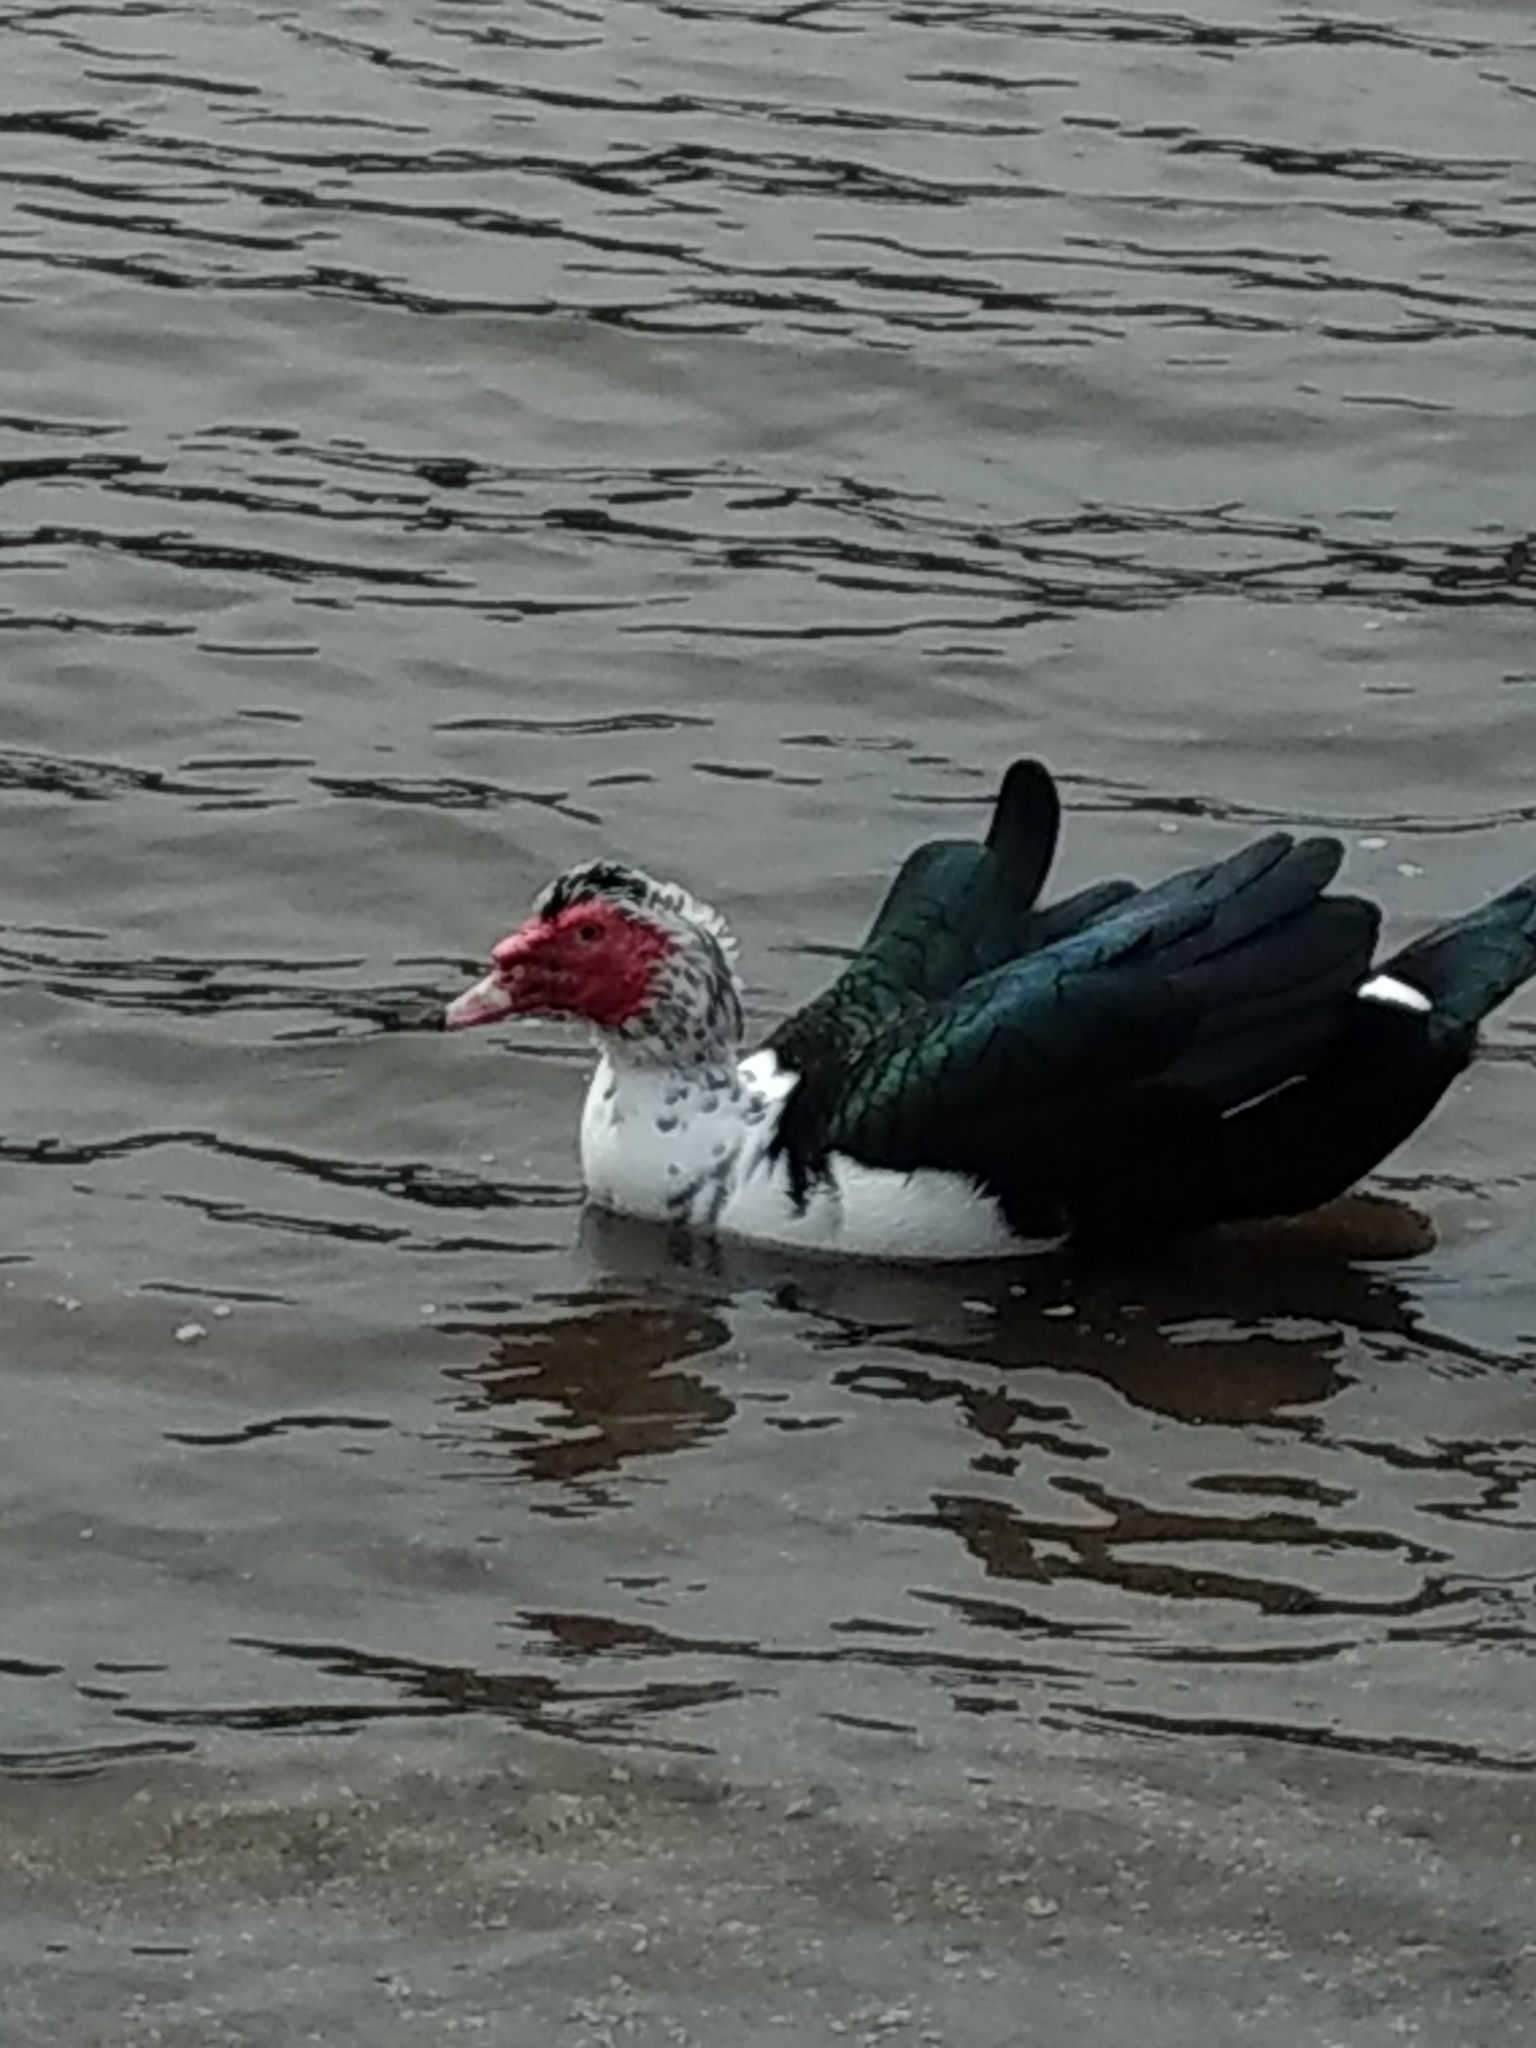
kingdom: Animalia
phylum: Chordata
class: Aves
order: Anseriformes
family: Anatidae
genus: Cairina
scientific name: Cairina moschata
